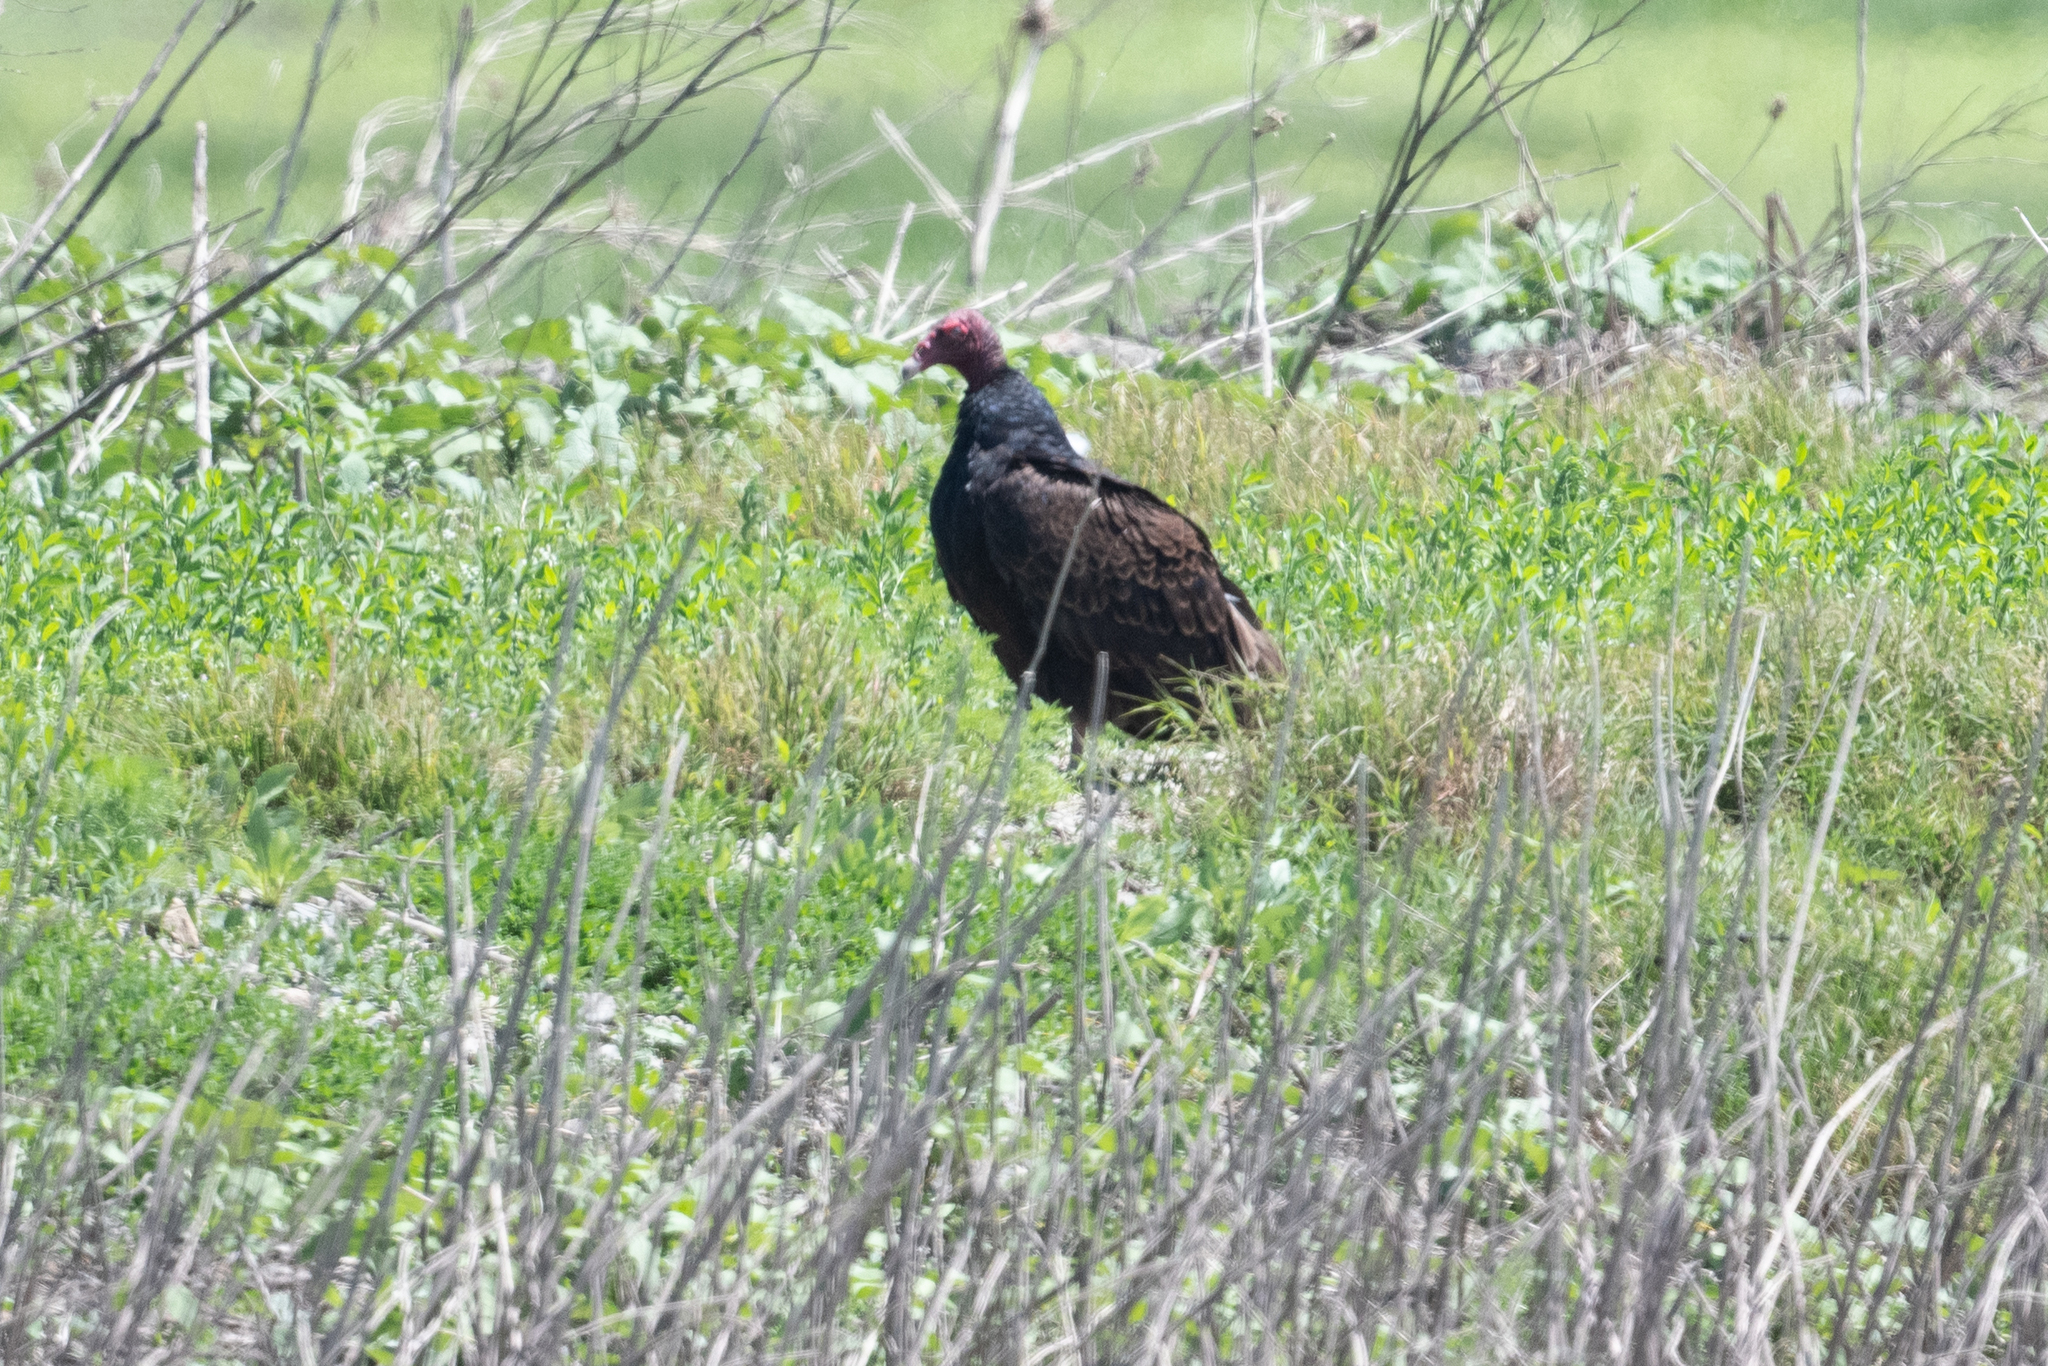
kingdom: Animalia
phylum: Chordata
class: Aves
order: Accipitriformes
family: Cathartidae
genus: Cathartes
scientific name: Cathartes aura
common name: Turkey vulture
